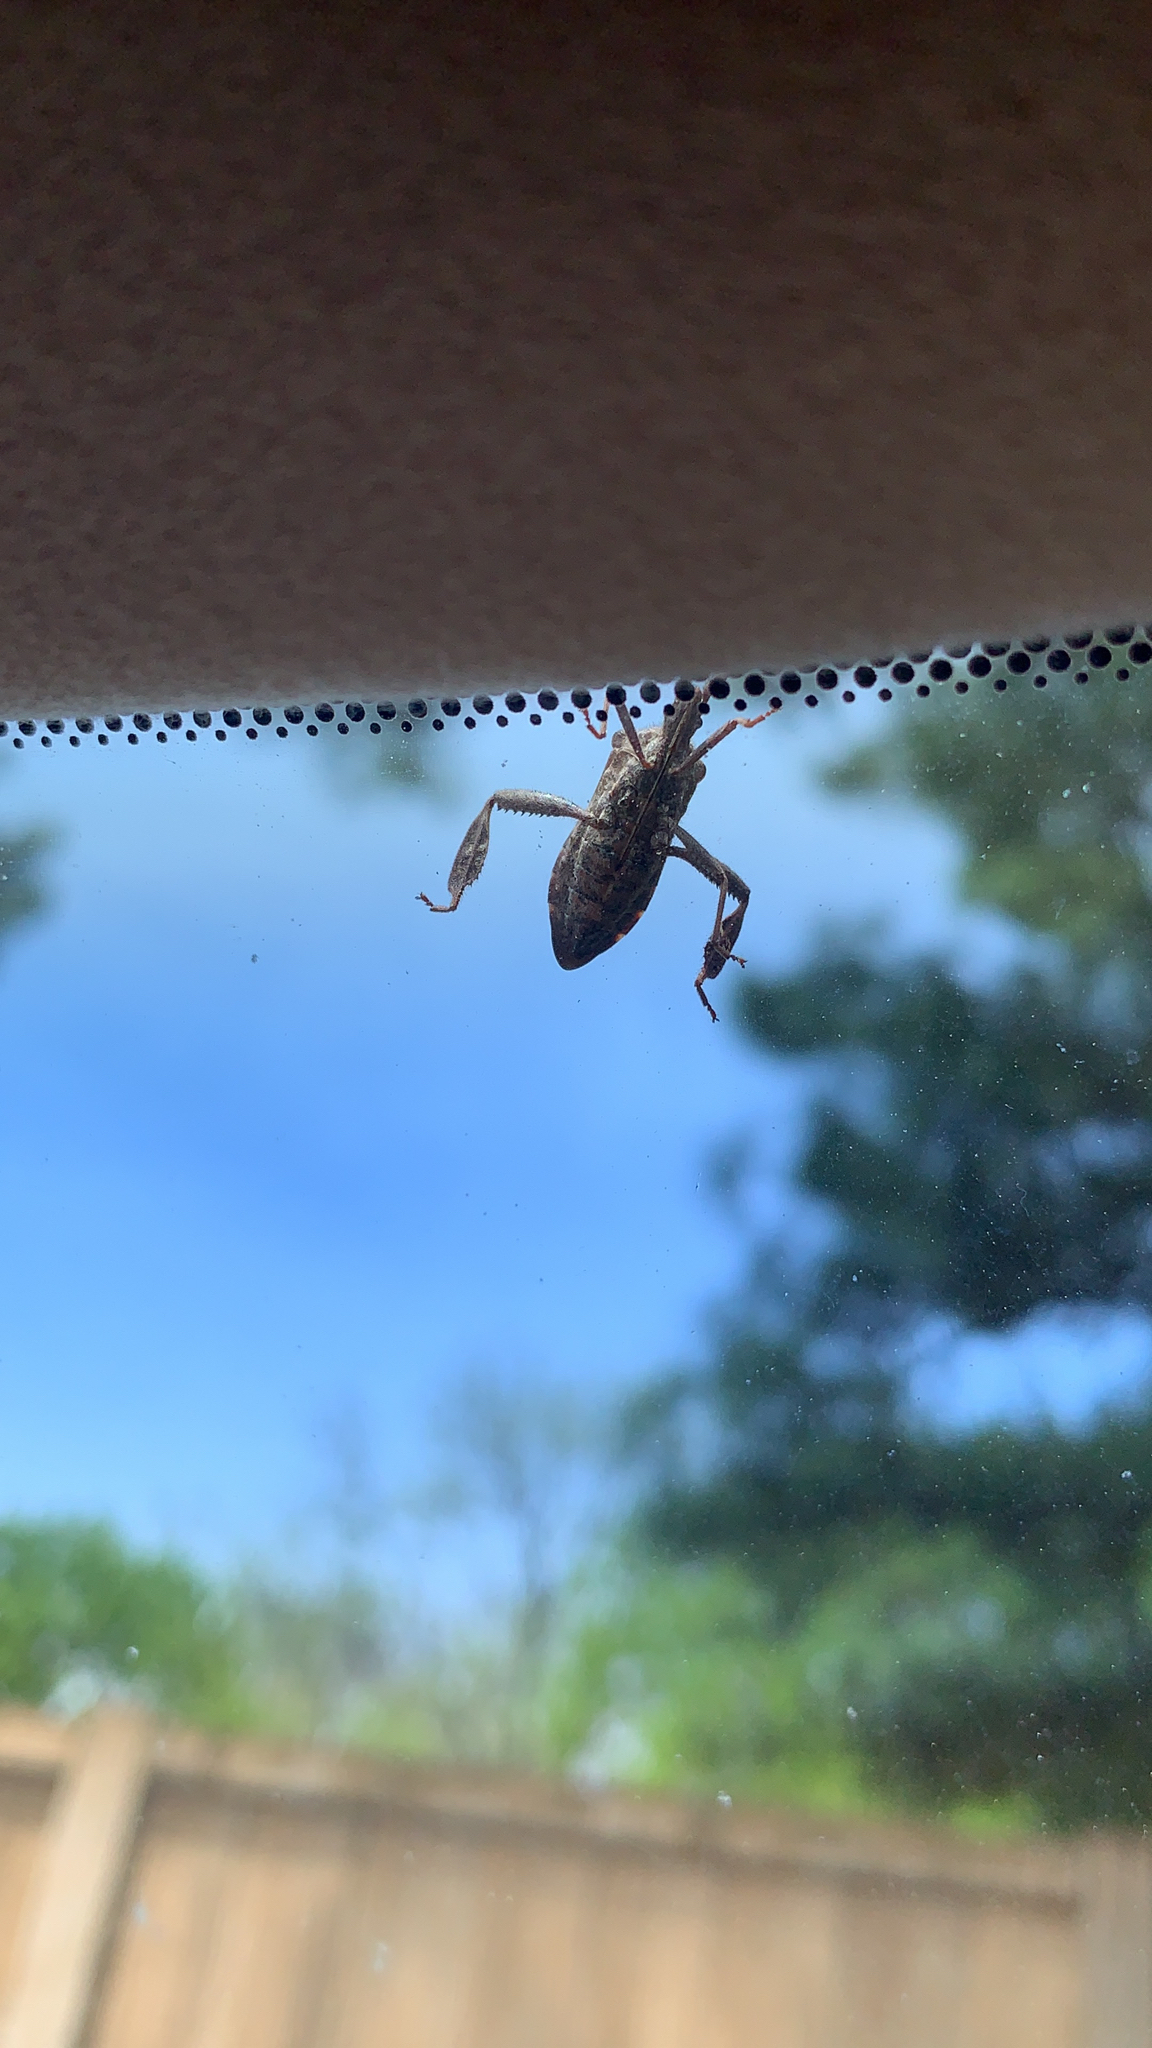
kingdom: Animalia
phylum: Arthropoda
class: Insecta
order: Hemiptera
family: Coreidae
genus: Leptoglossus
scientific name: Leptoglossus corculus
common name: Southern pine seed bug
